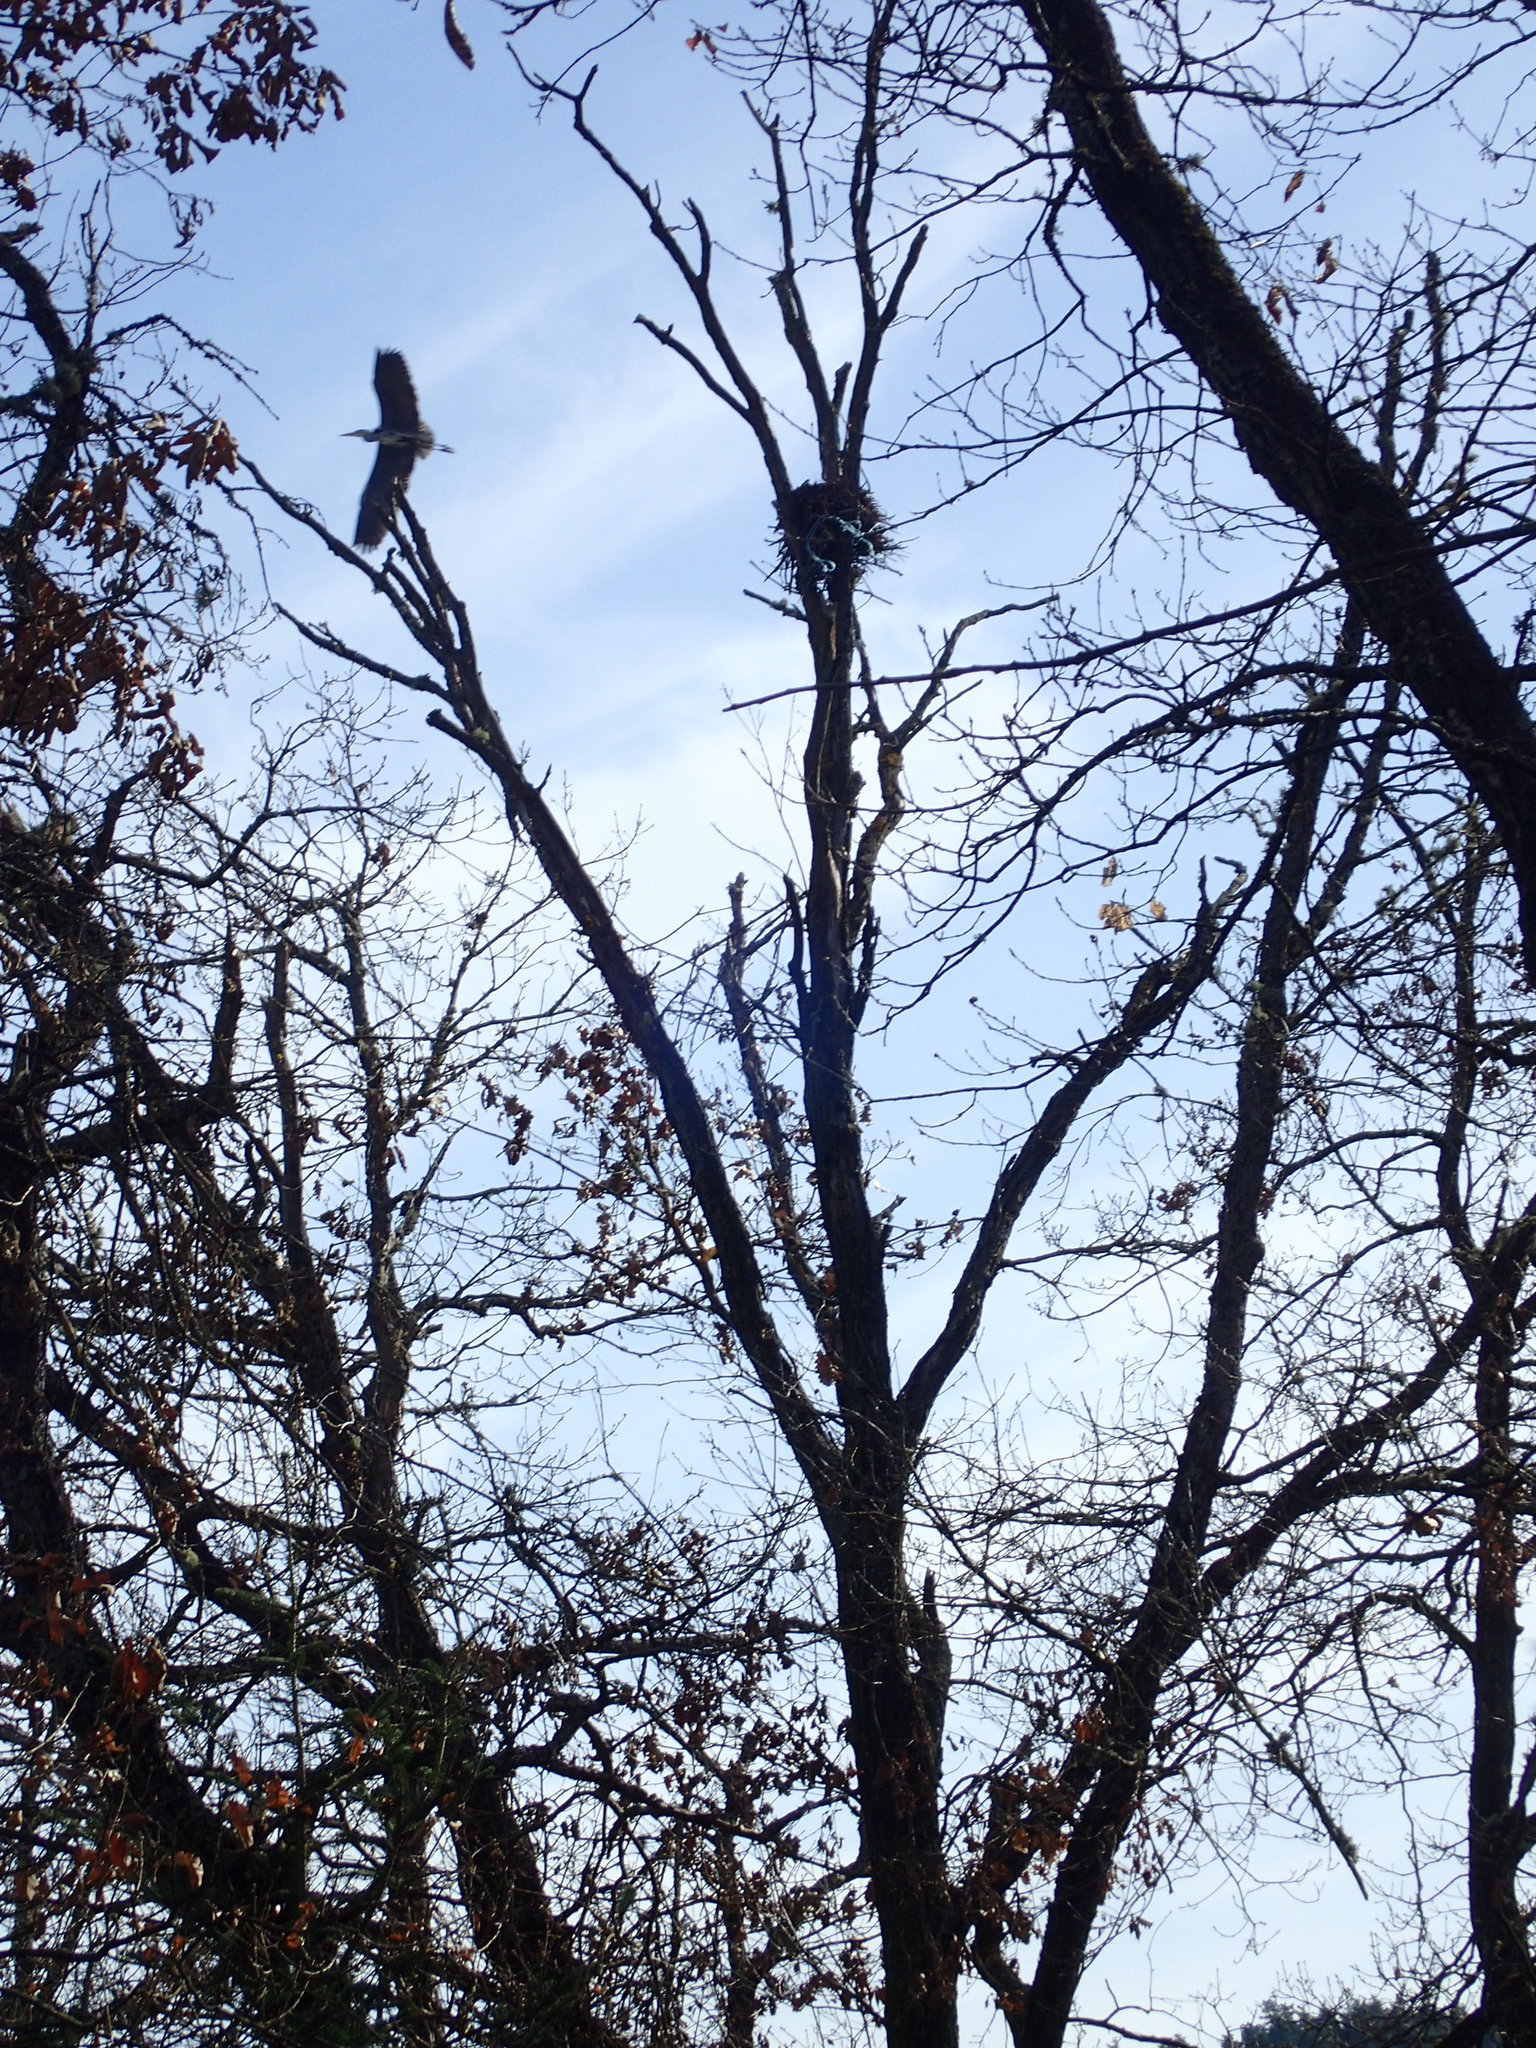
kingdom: Animalia
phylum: Chordata
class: Aves
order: Pelecaniformes
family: Ardeidae
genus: Ardea
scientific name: Ardea cinerea
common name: Grey heron
